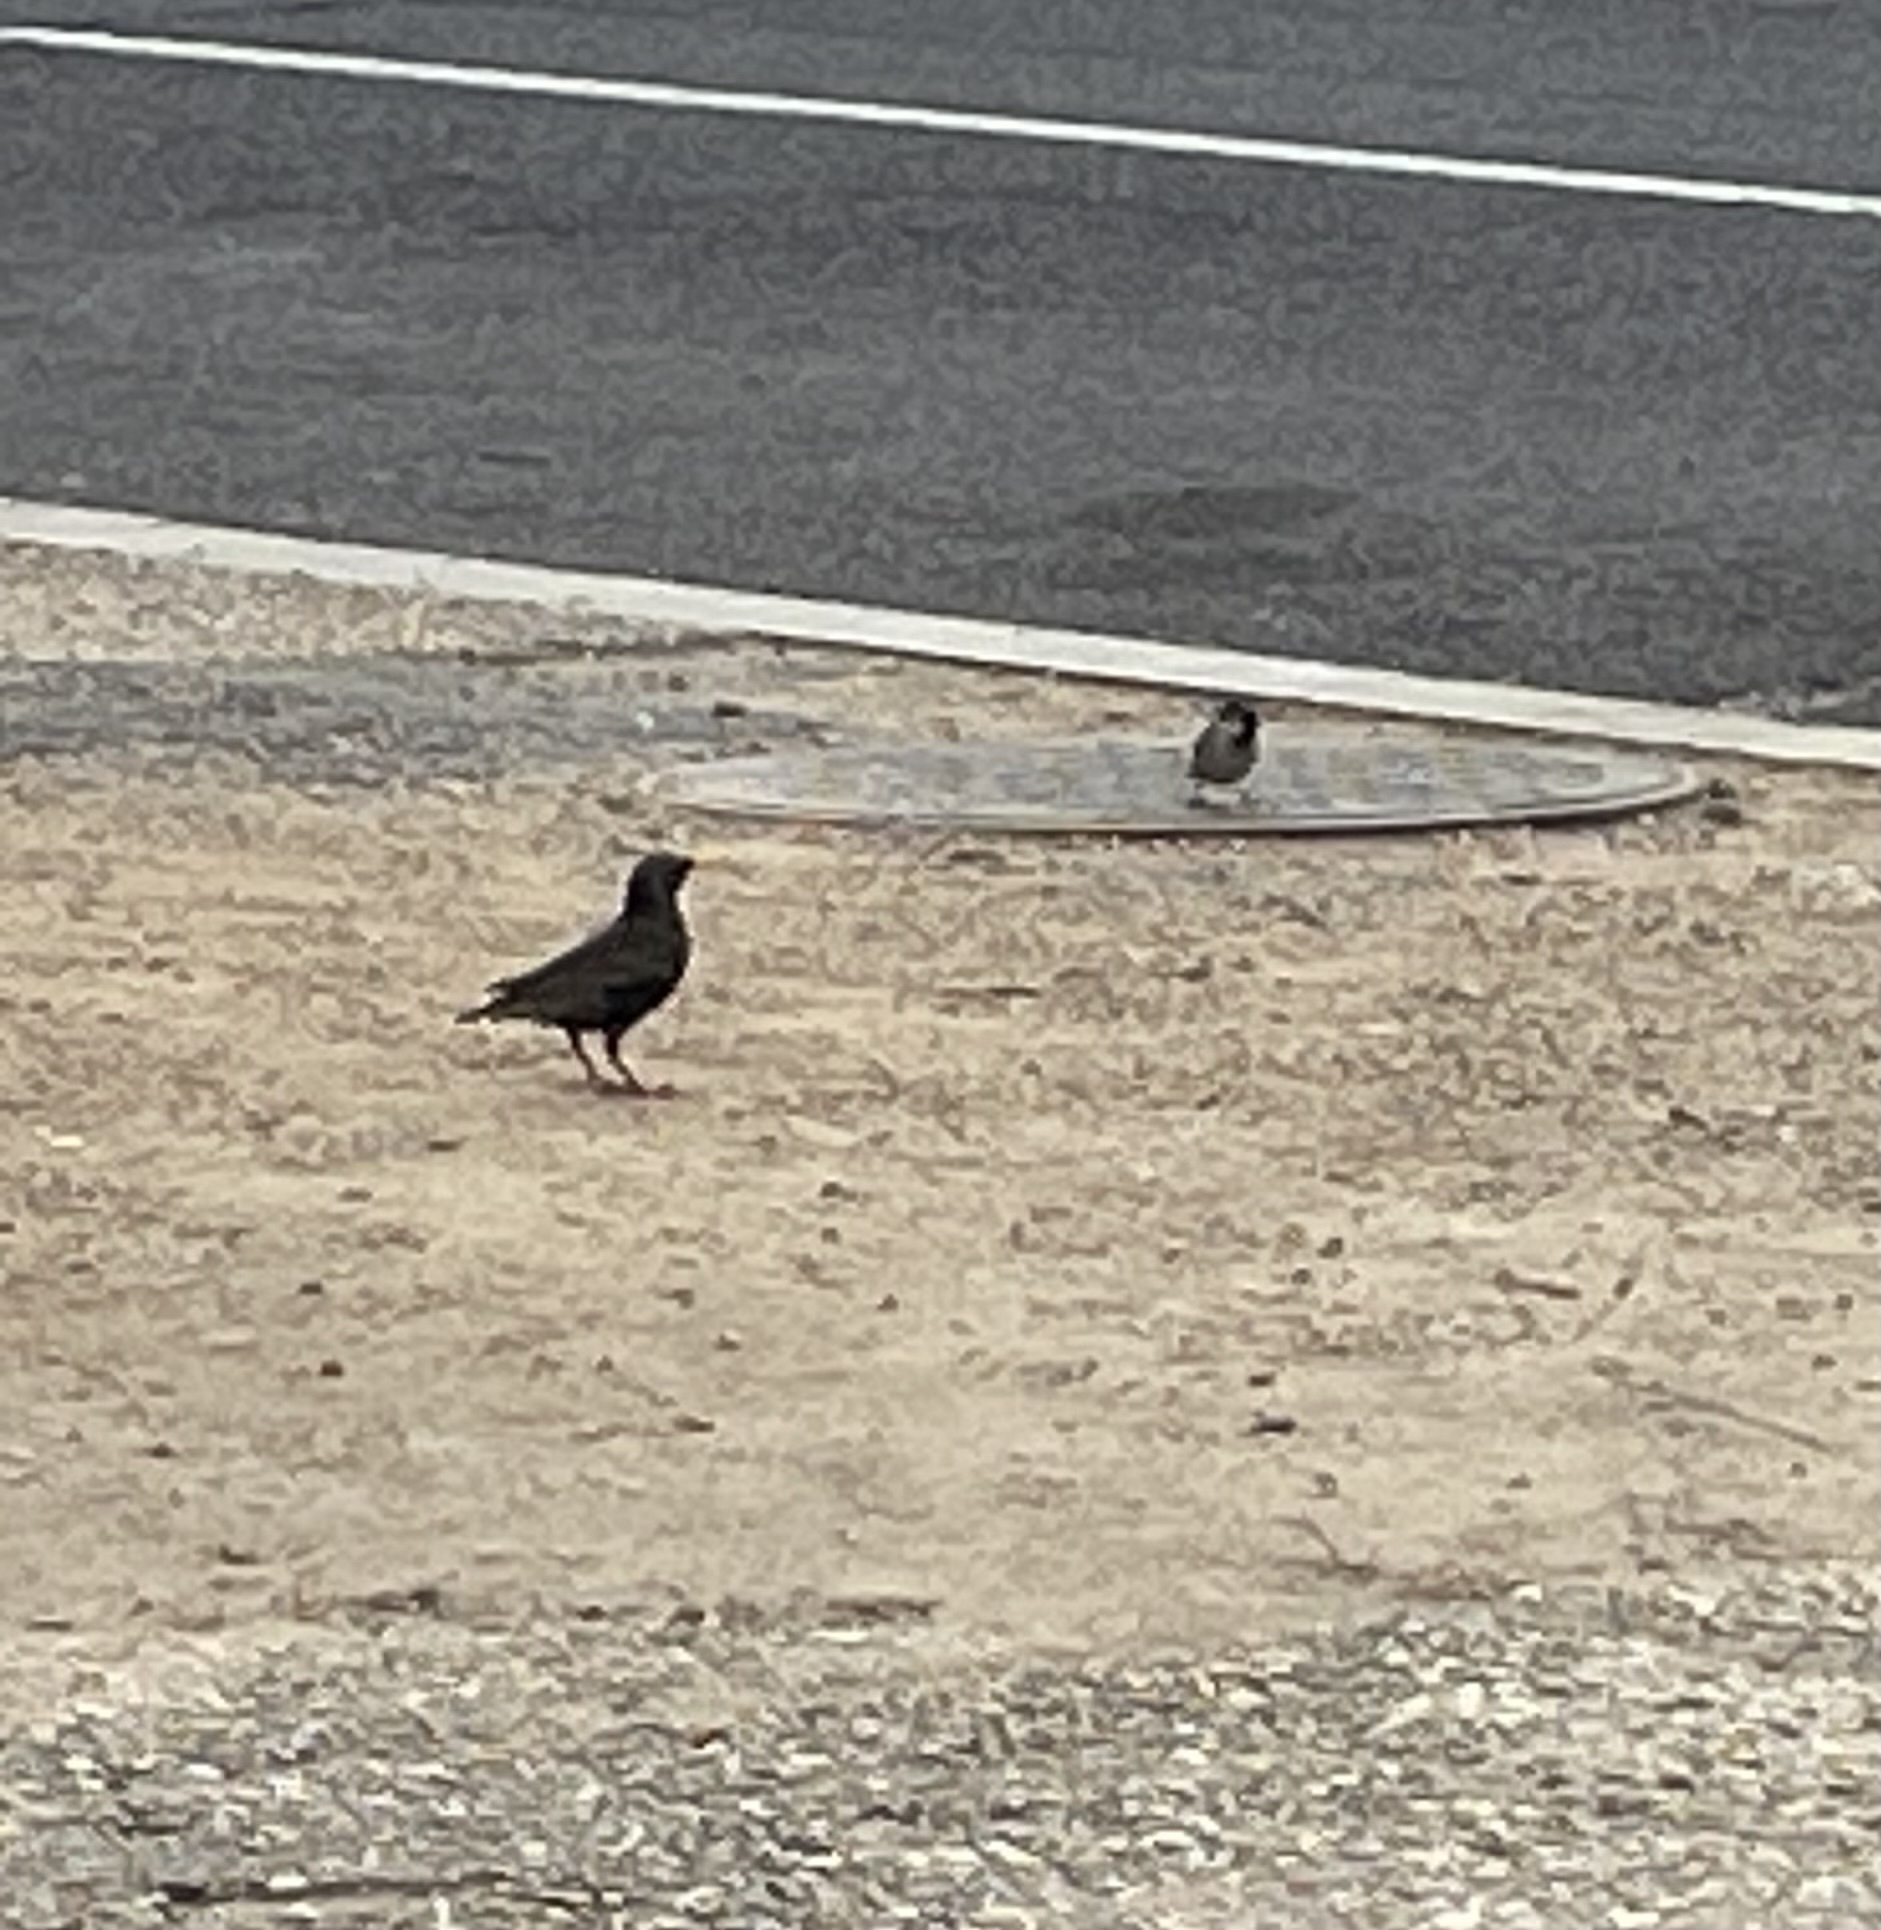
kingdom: Animalia
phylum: Chordata
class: Aves
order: Passeriformes
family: Sturnidae
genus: Sturnus
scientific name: Sturnus vulgaris
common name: Common starling
